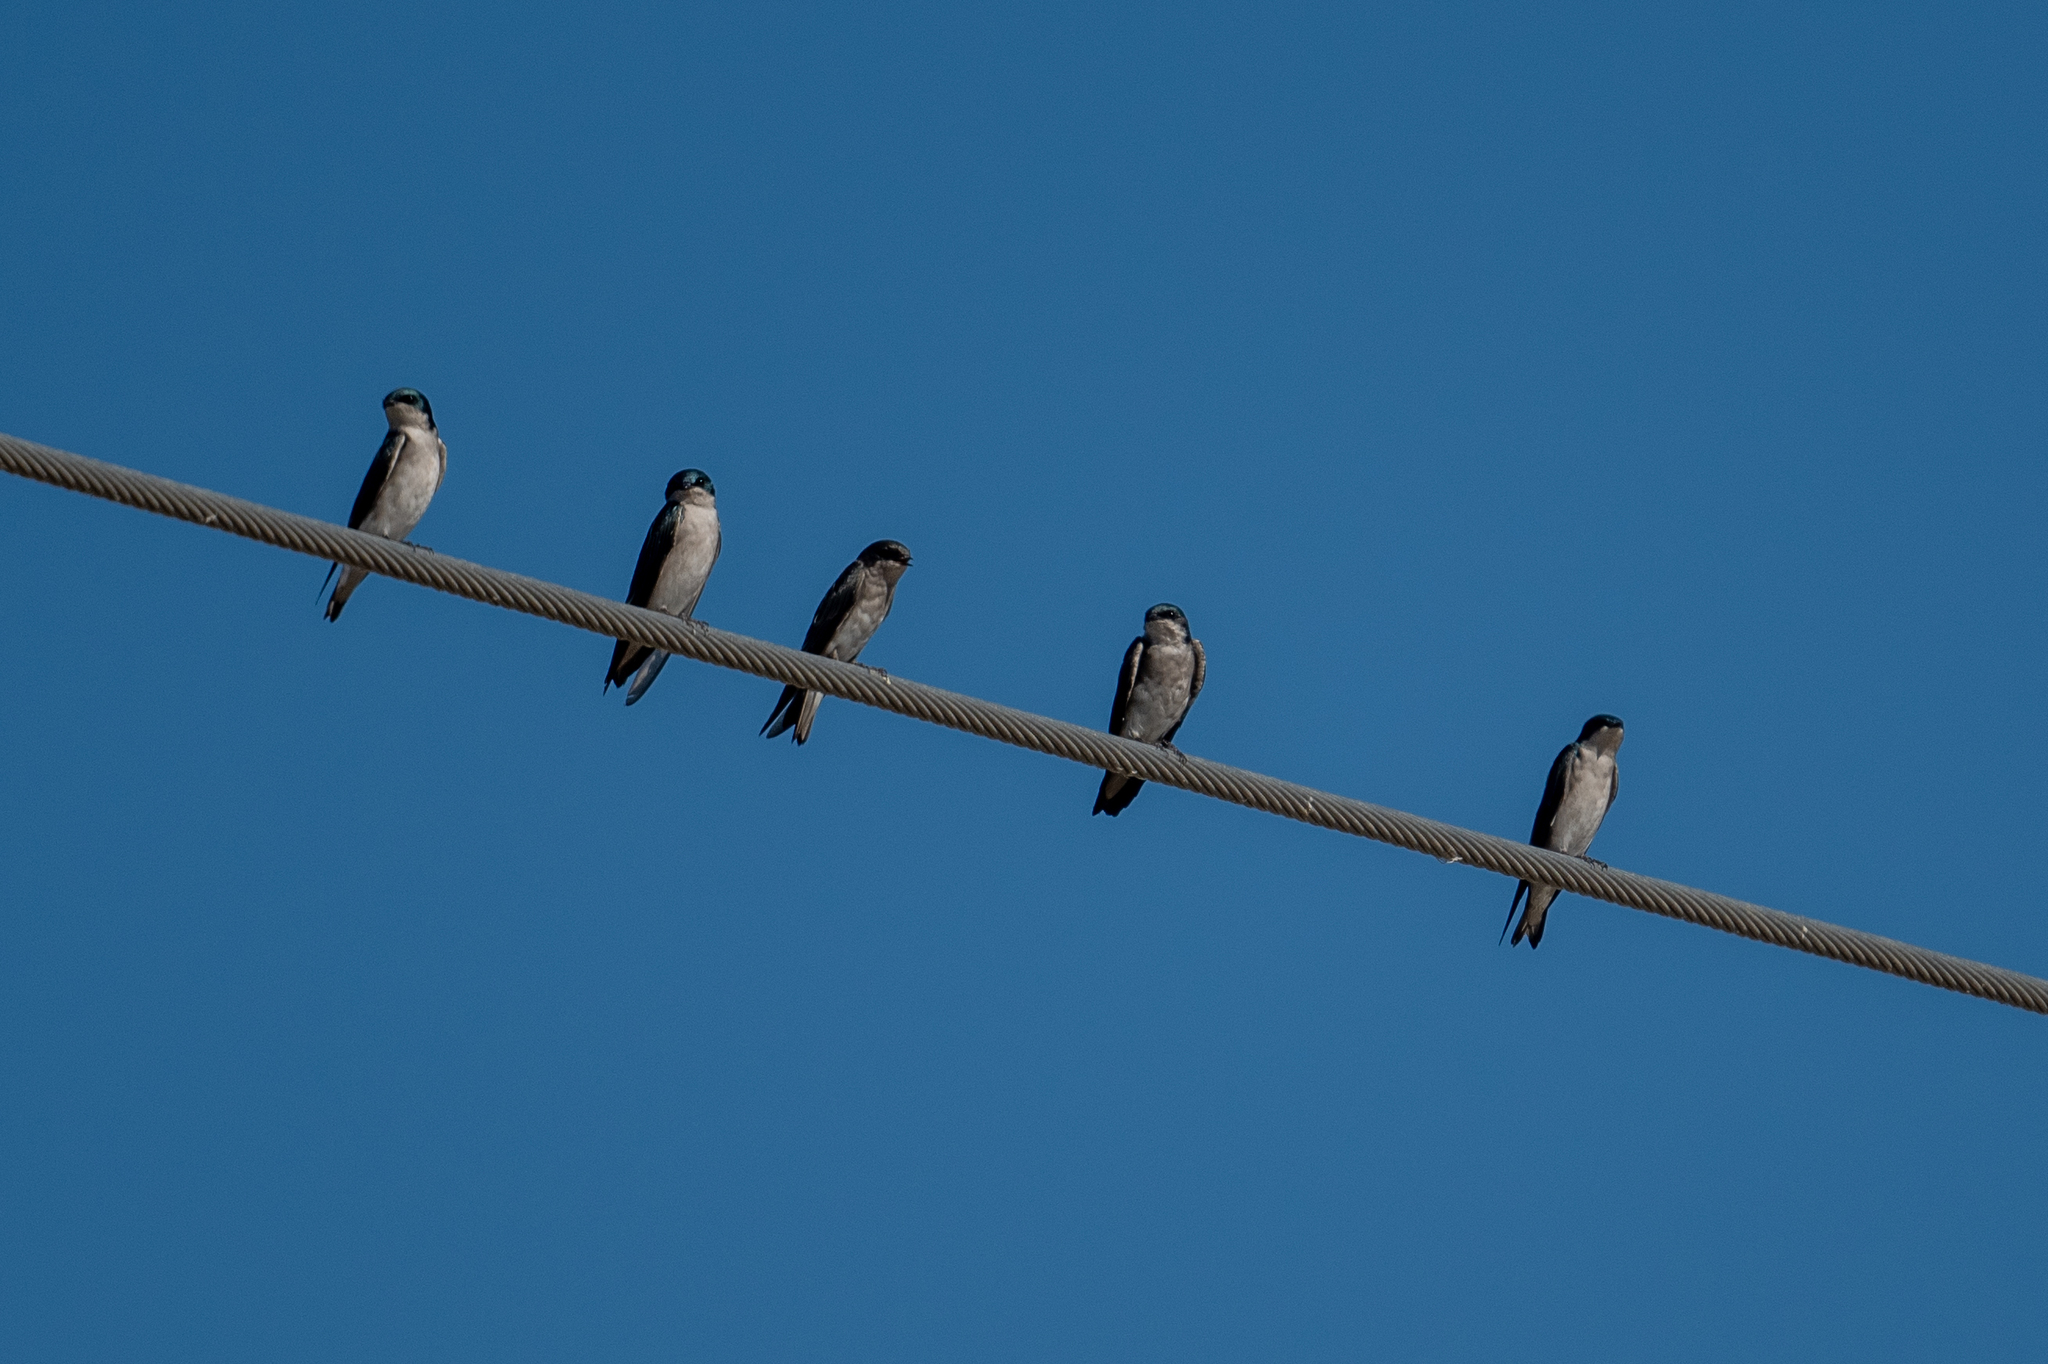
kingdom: Animalia
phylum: Chordata
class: Aves
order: Passeriformes
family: Hirundinidae
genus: Tachycineta
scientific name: Tachycineta bicolor
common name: Tree swallow
